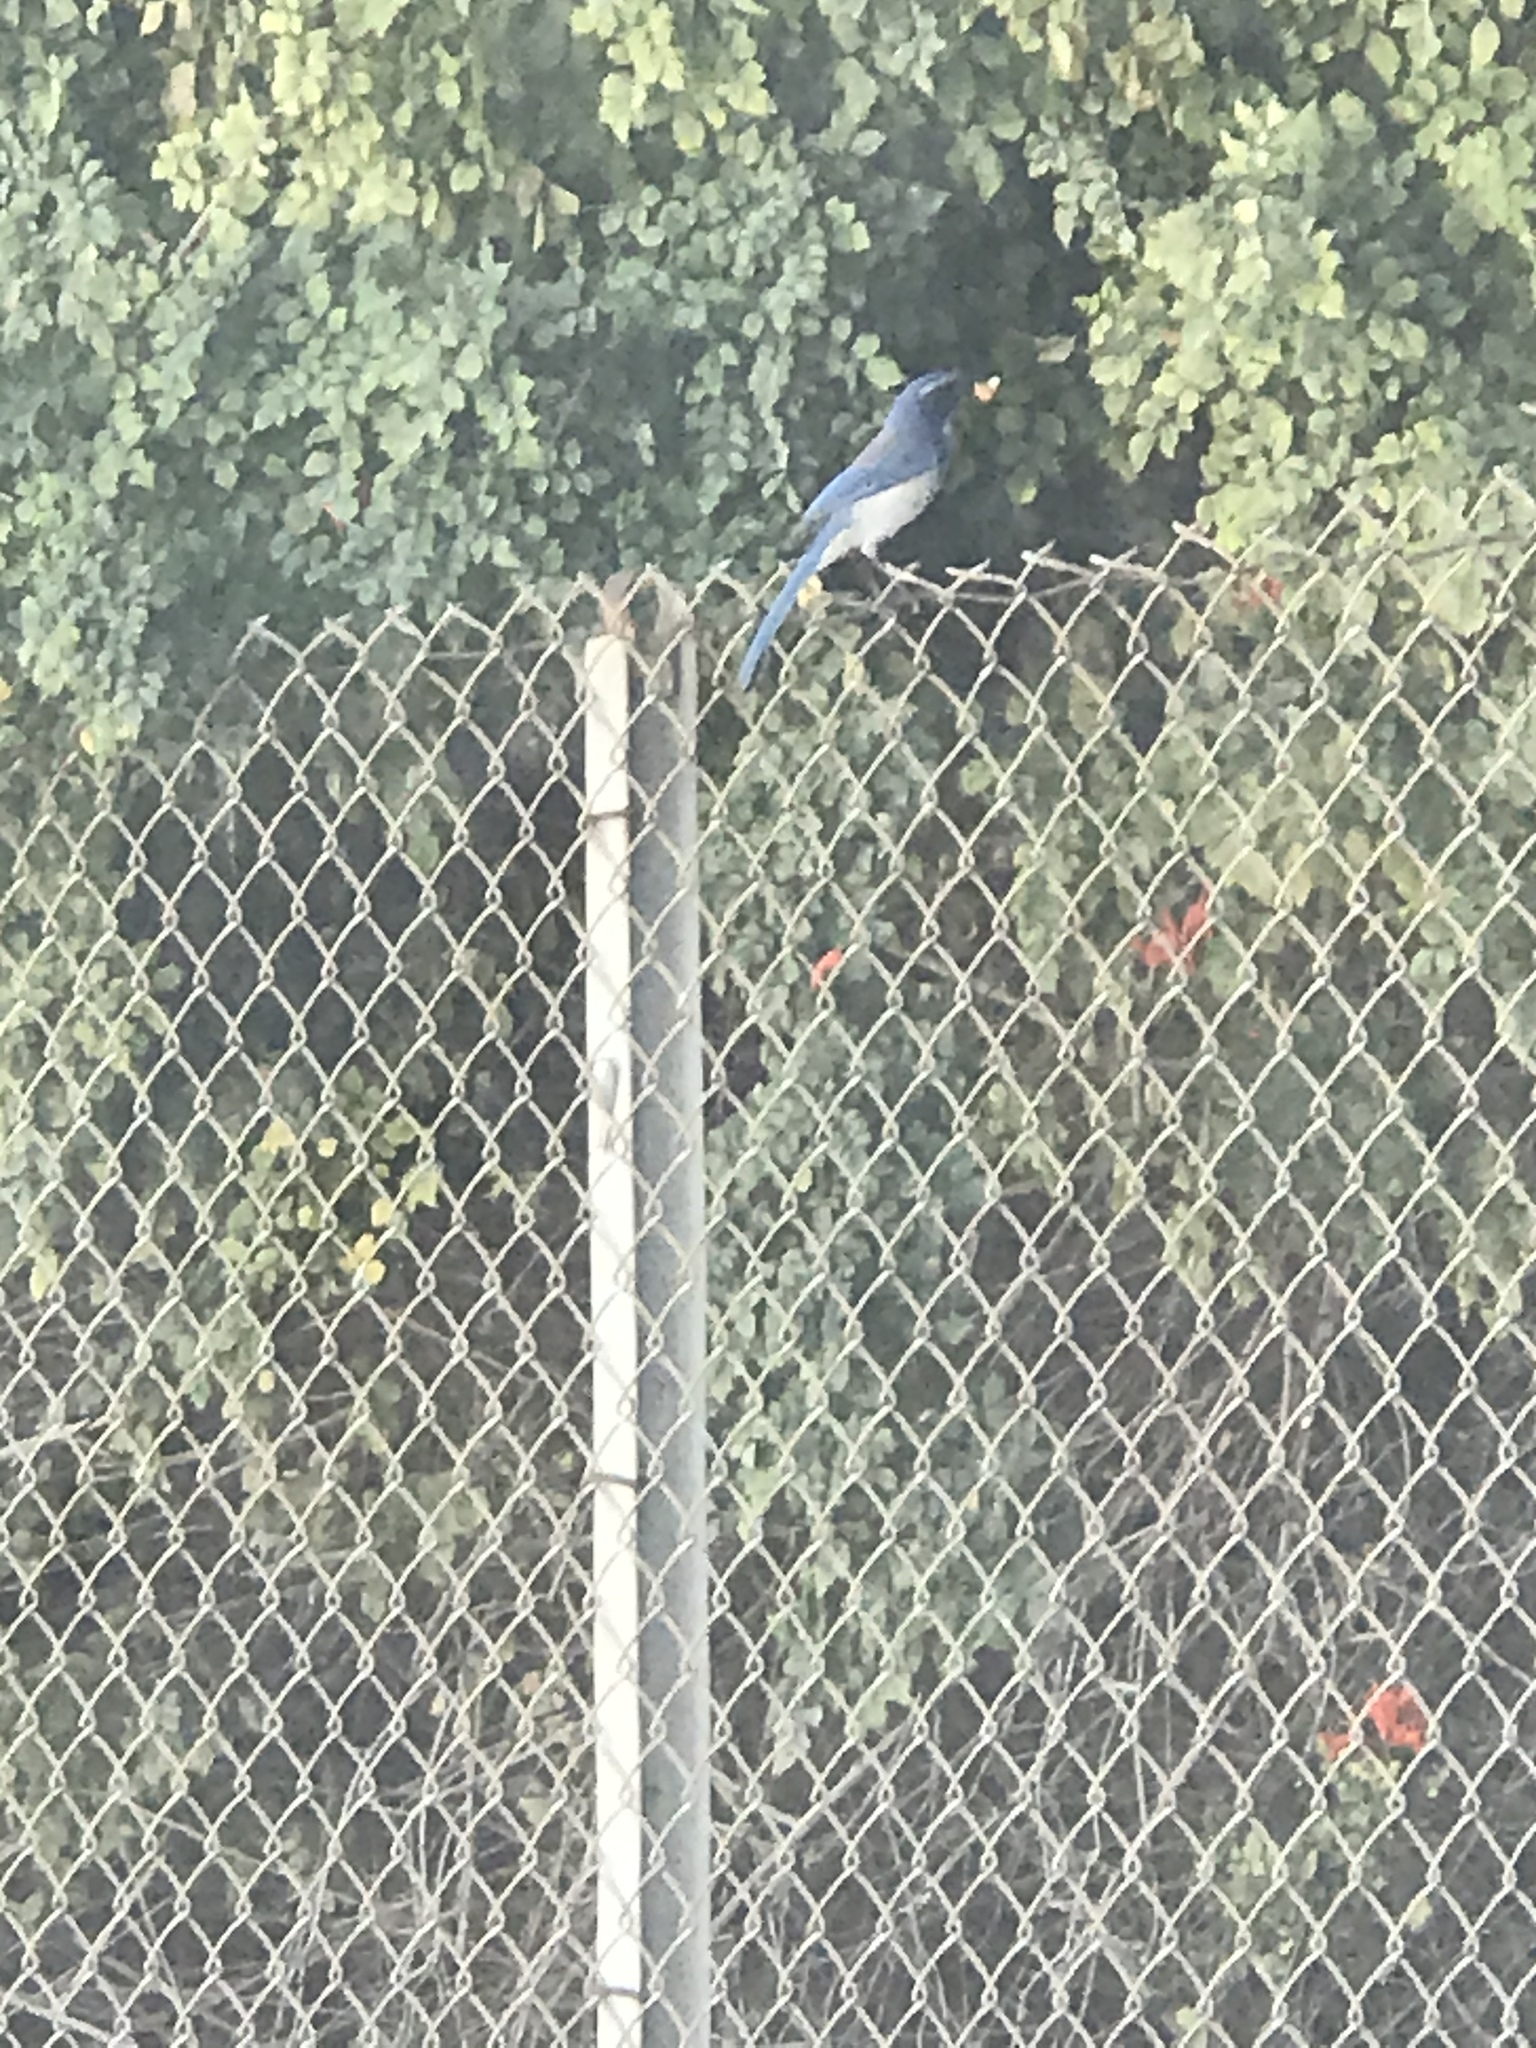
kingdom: Animalia
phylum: Chordata
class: Aves
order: Passeriformes
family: Corvidae
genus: Aphelocoma
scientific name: Aphelocoma californica
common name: California scrub-jay
